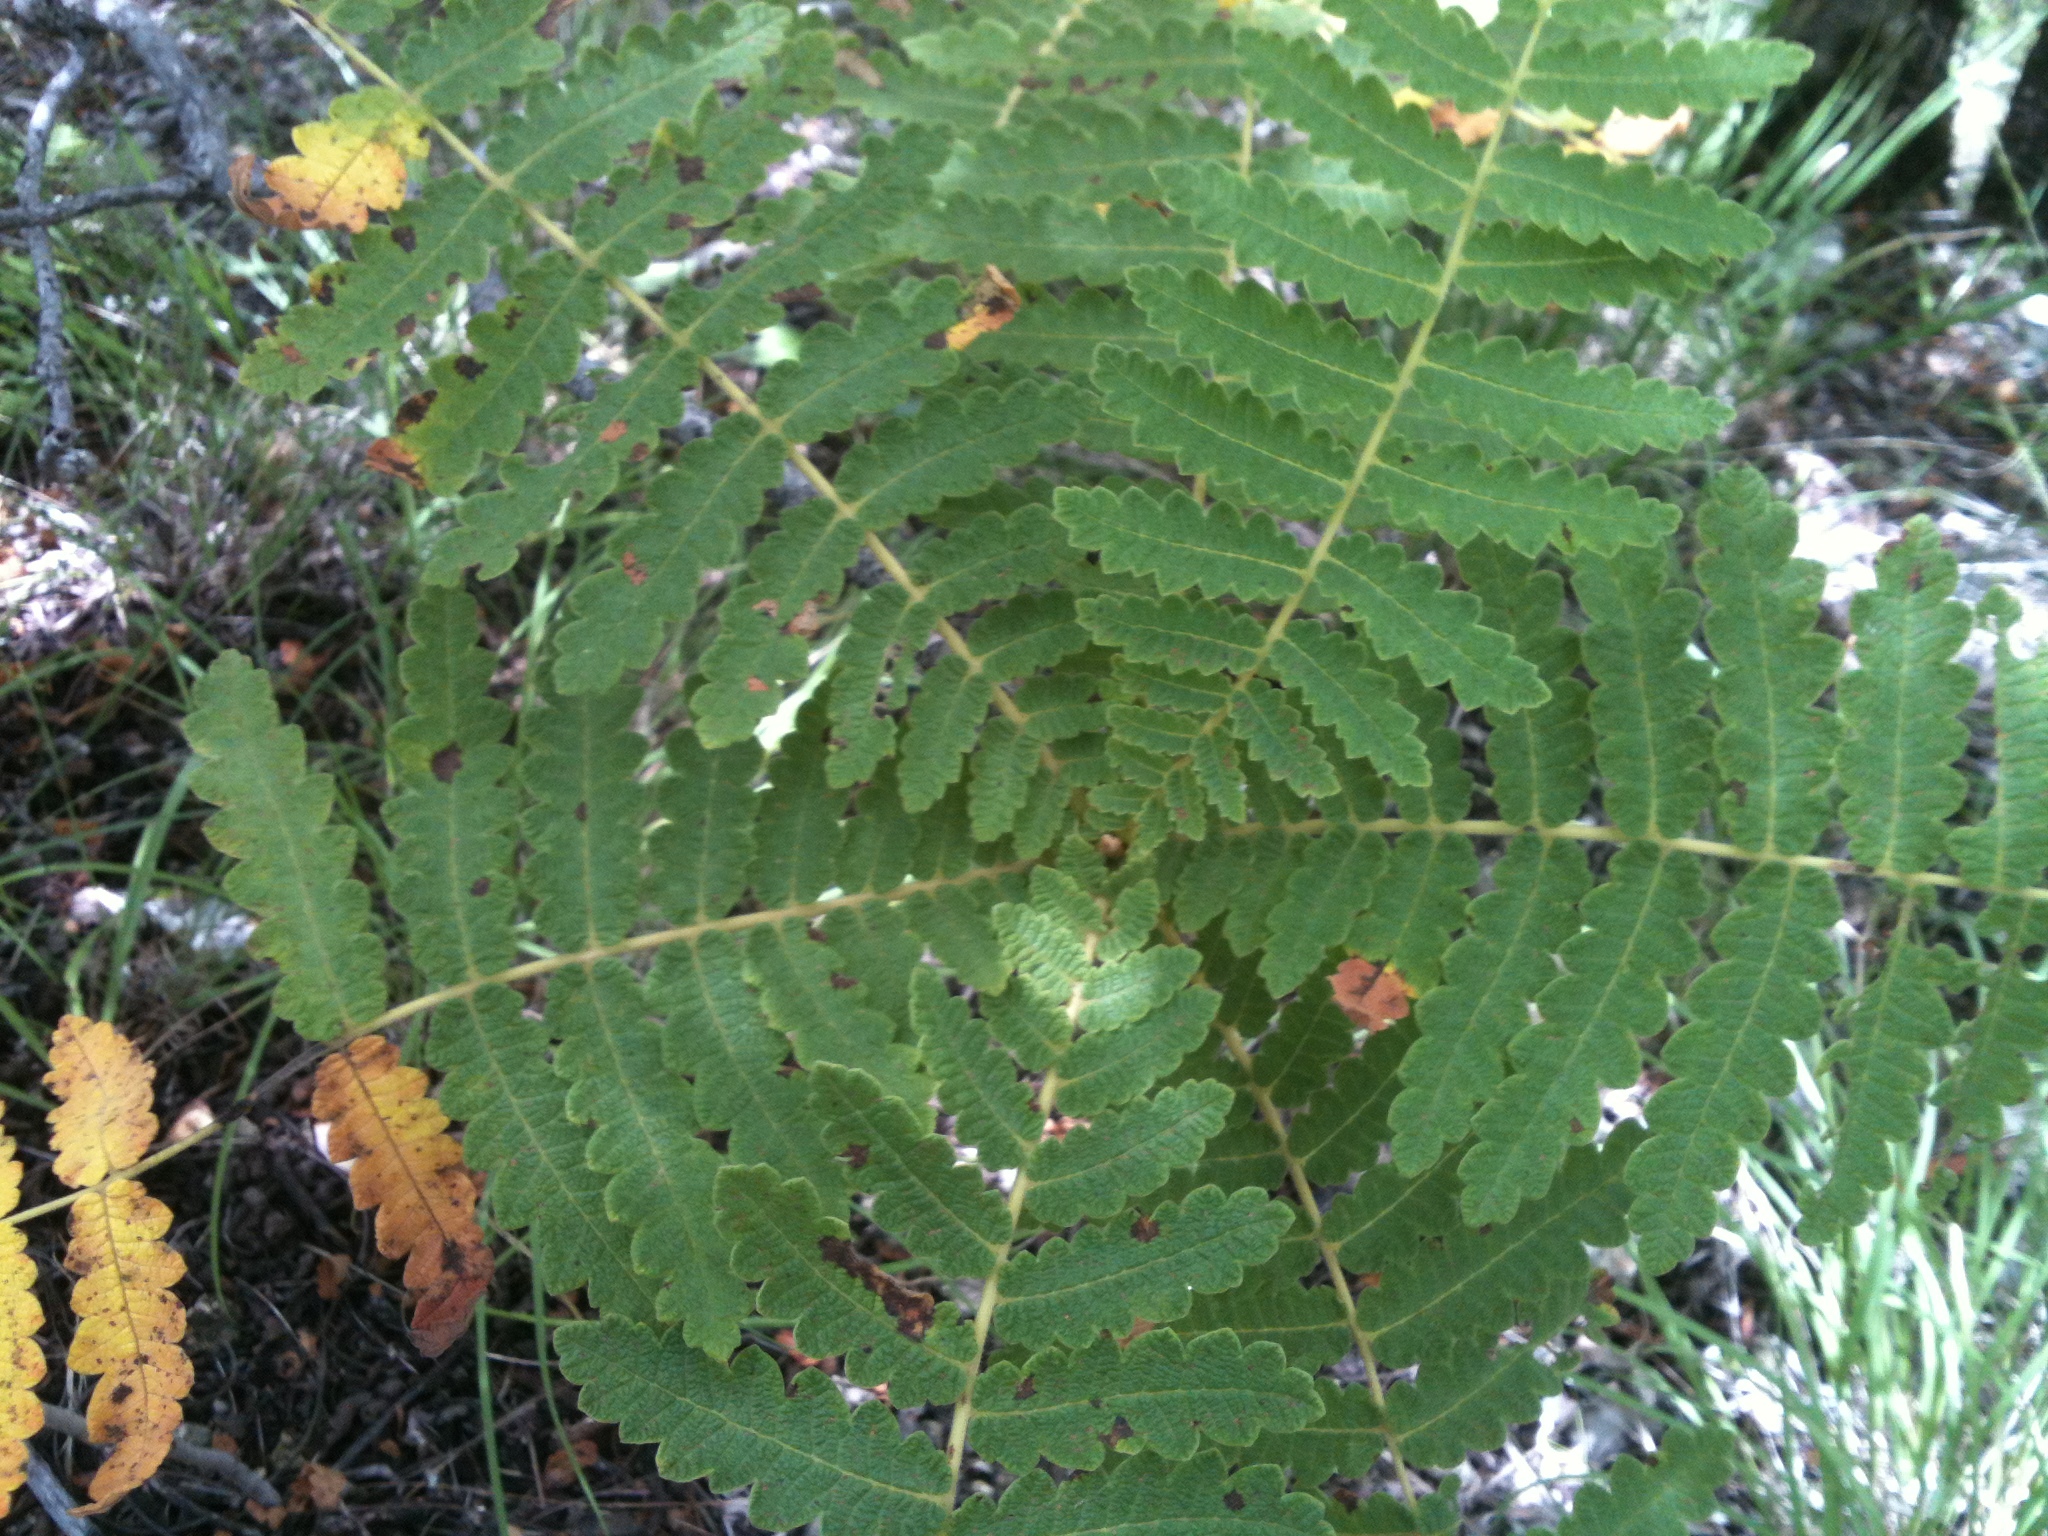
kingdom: Plantae
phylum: Tracheophyta
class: Magnoliopsida
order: Sapindales
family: Anacardiaceae
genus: Actinocheita
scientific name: Actinocheita filicina
